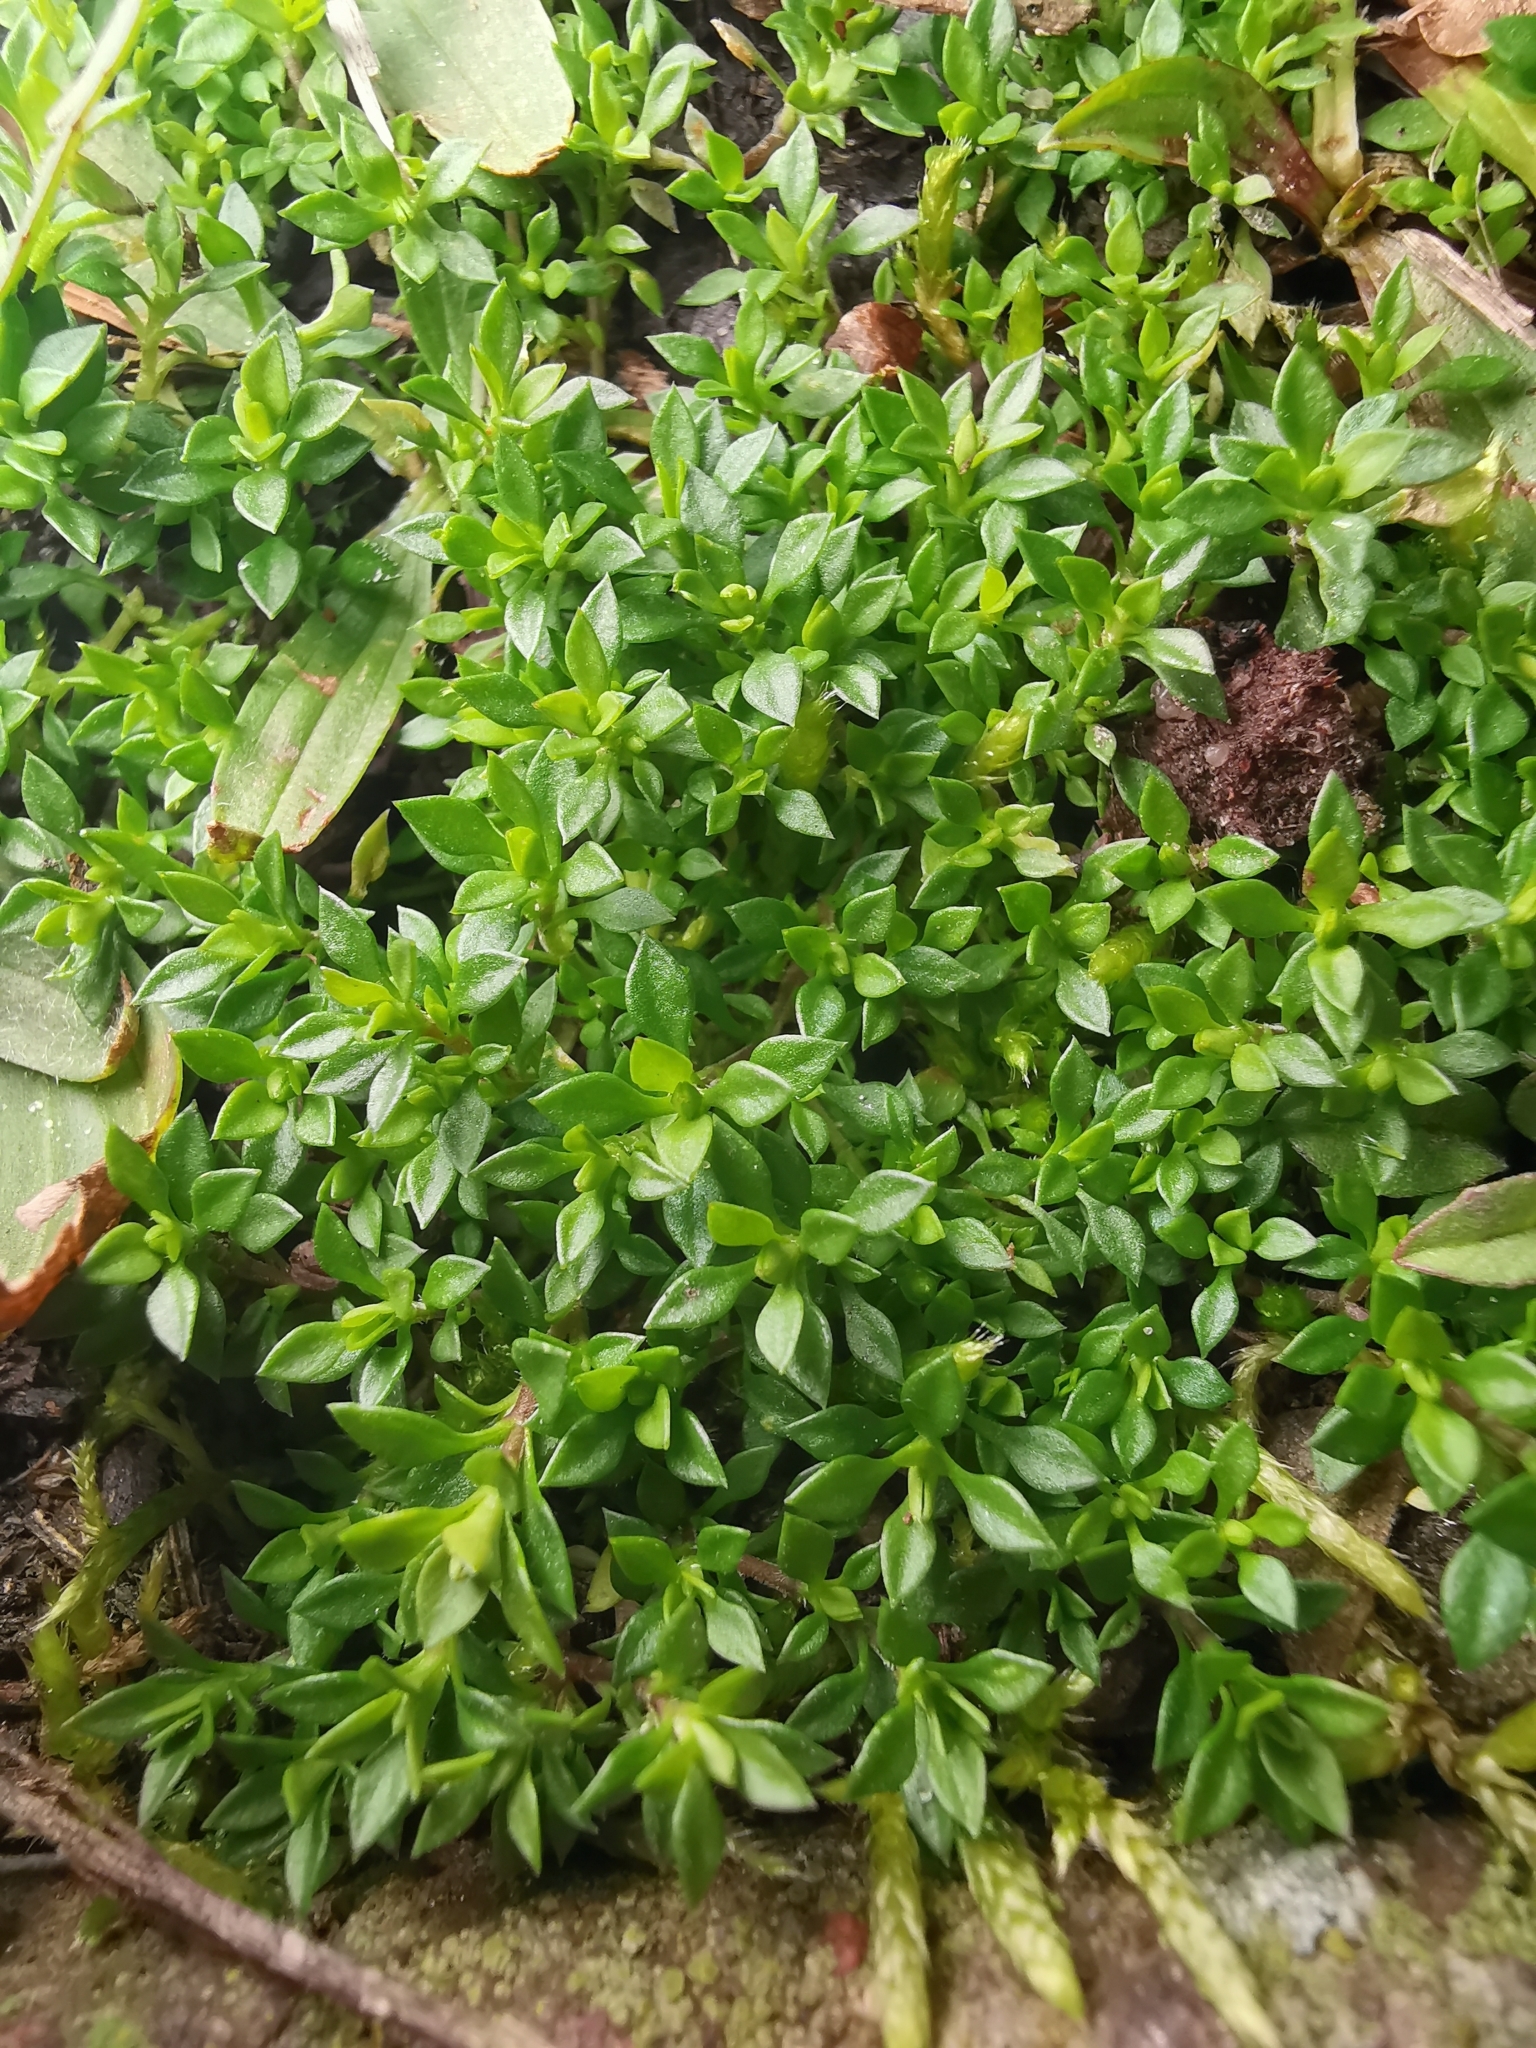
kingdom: Plantae
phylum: Tracheophyta
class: Magnoliopsida
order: Caryophyllales
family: Caryophyllaceae
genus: Arenaria
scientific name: Arenaria serpyllifolia
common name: Thyme-leaved sandwort
